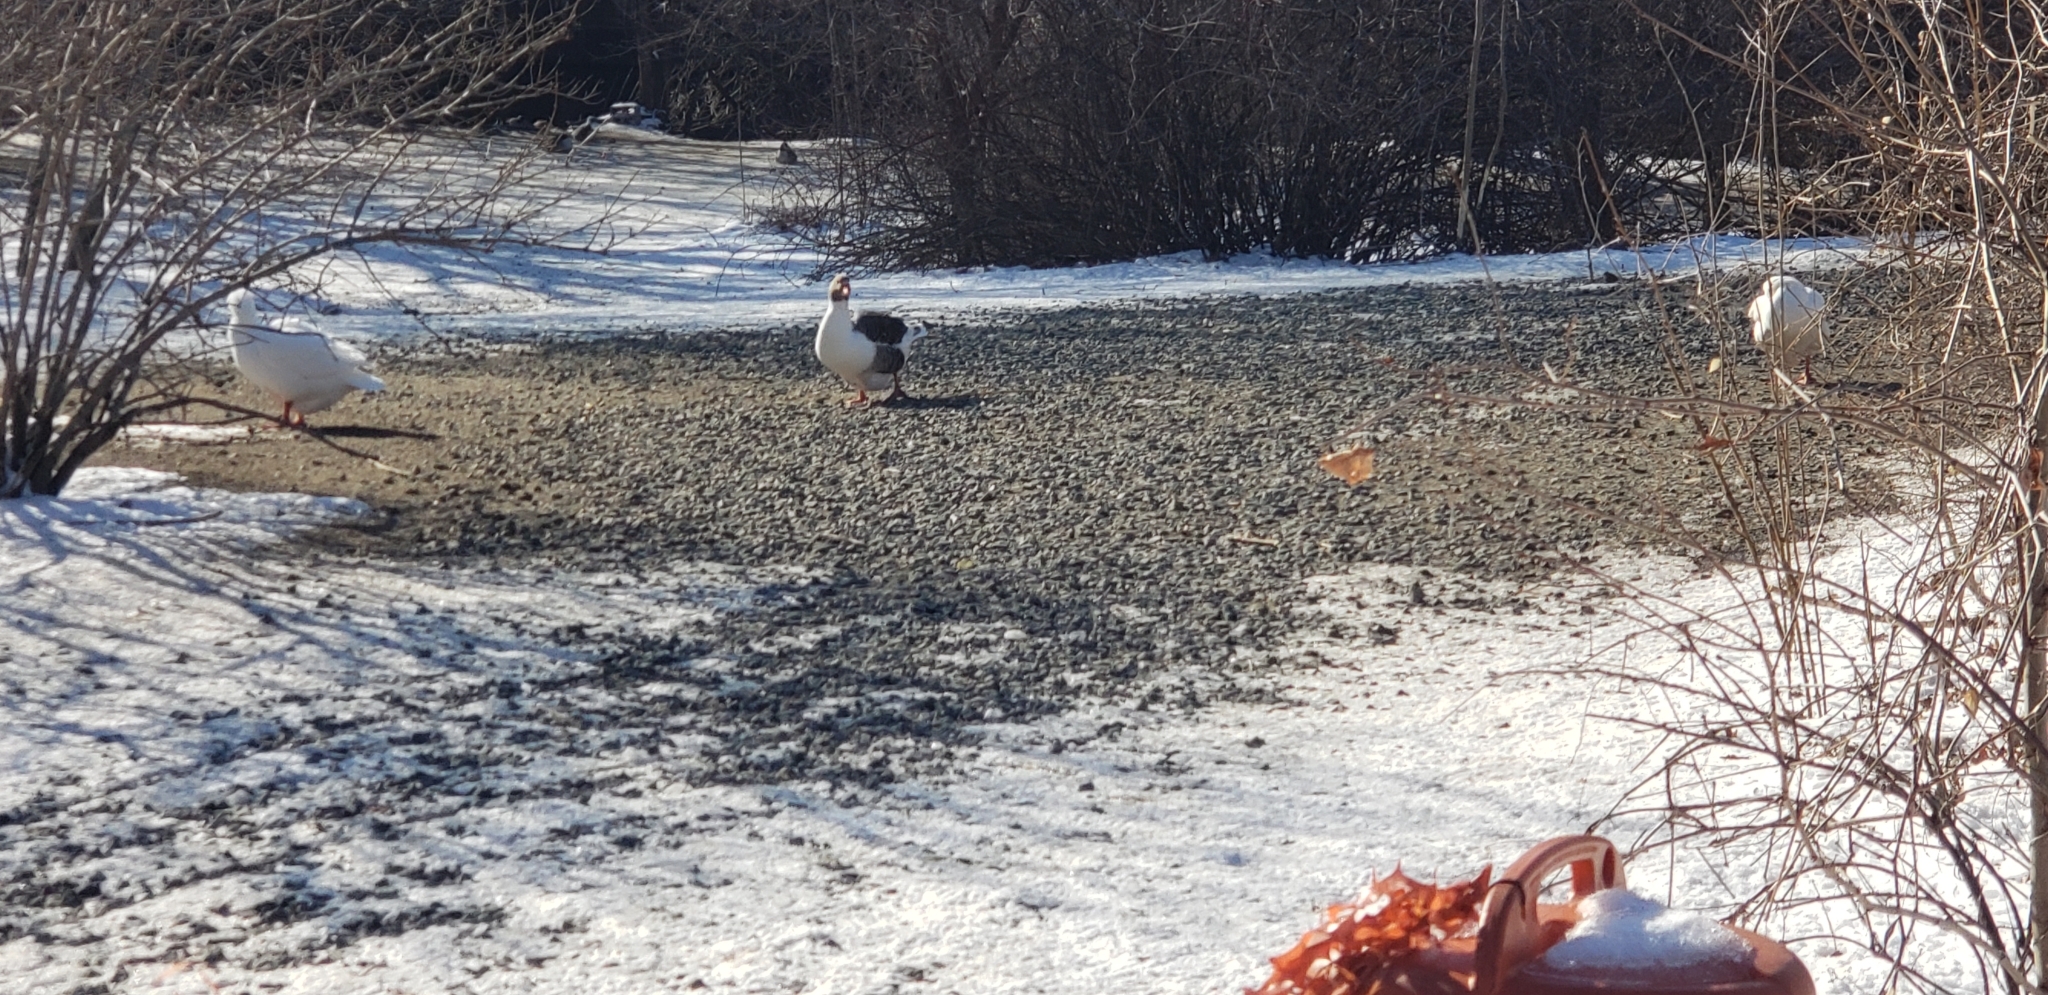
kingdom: Animalia
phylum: Chordata
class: Aves
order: Anseriformes
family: Anatidae
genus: Anser
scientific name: Anser anser
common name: Greylag goose
